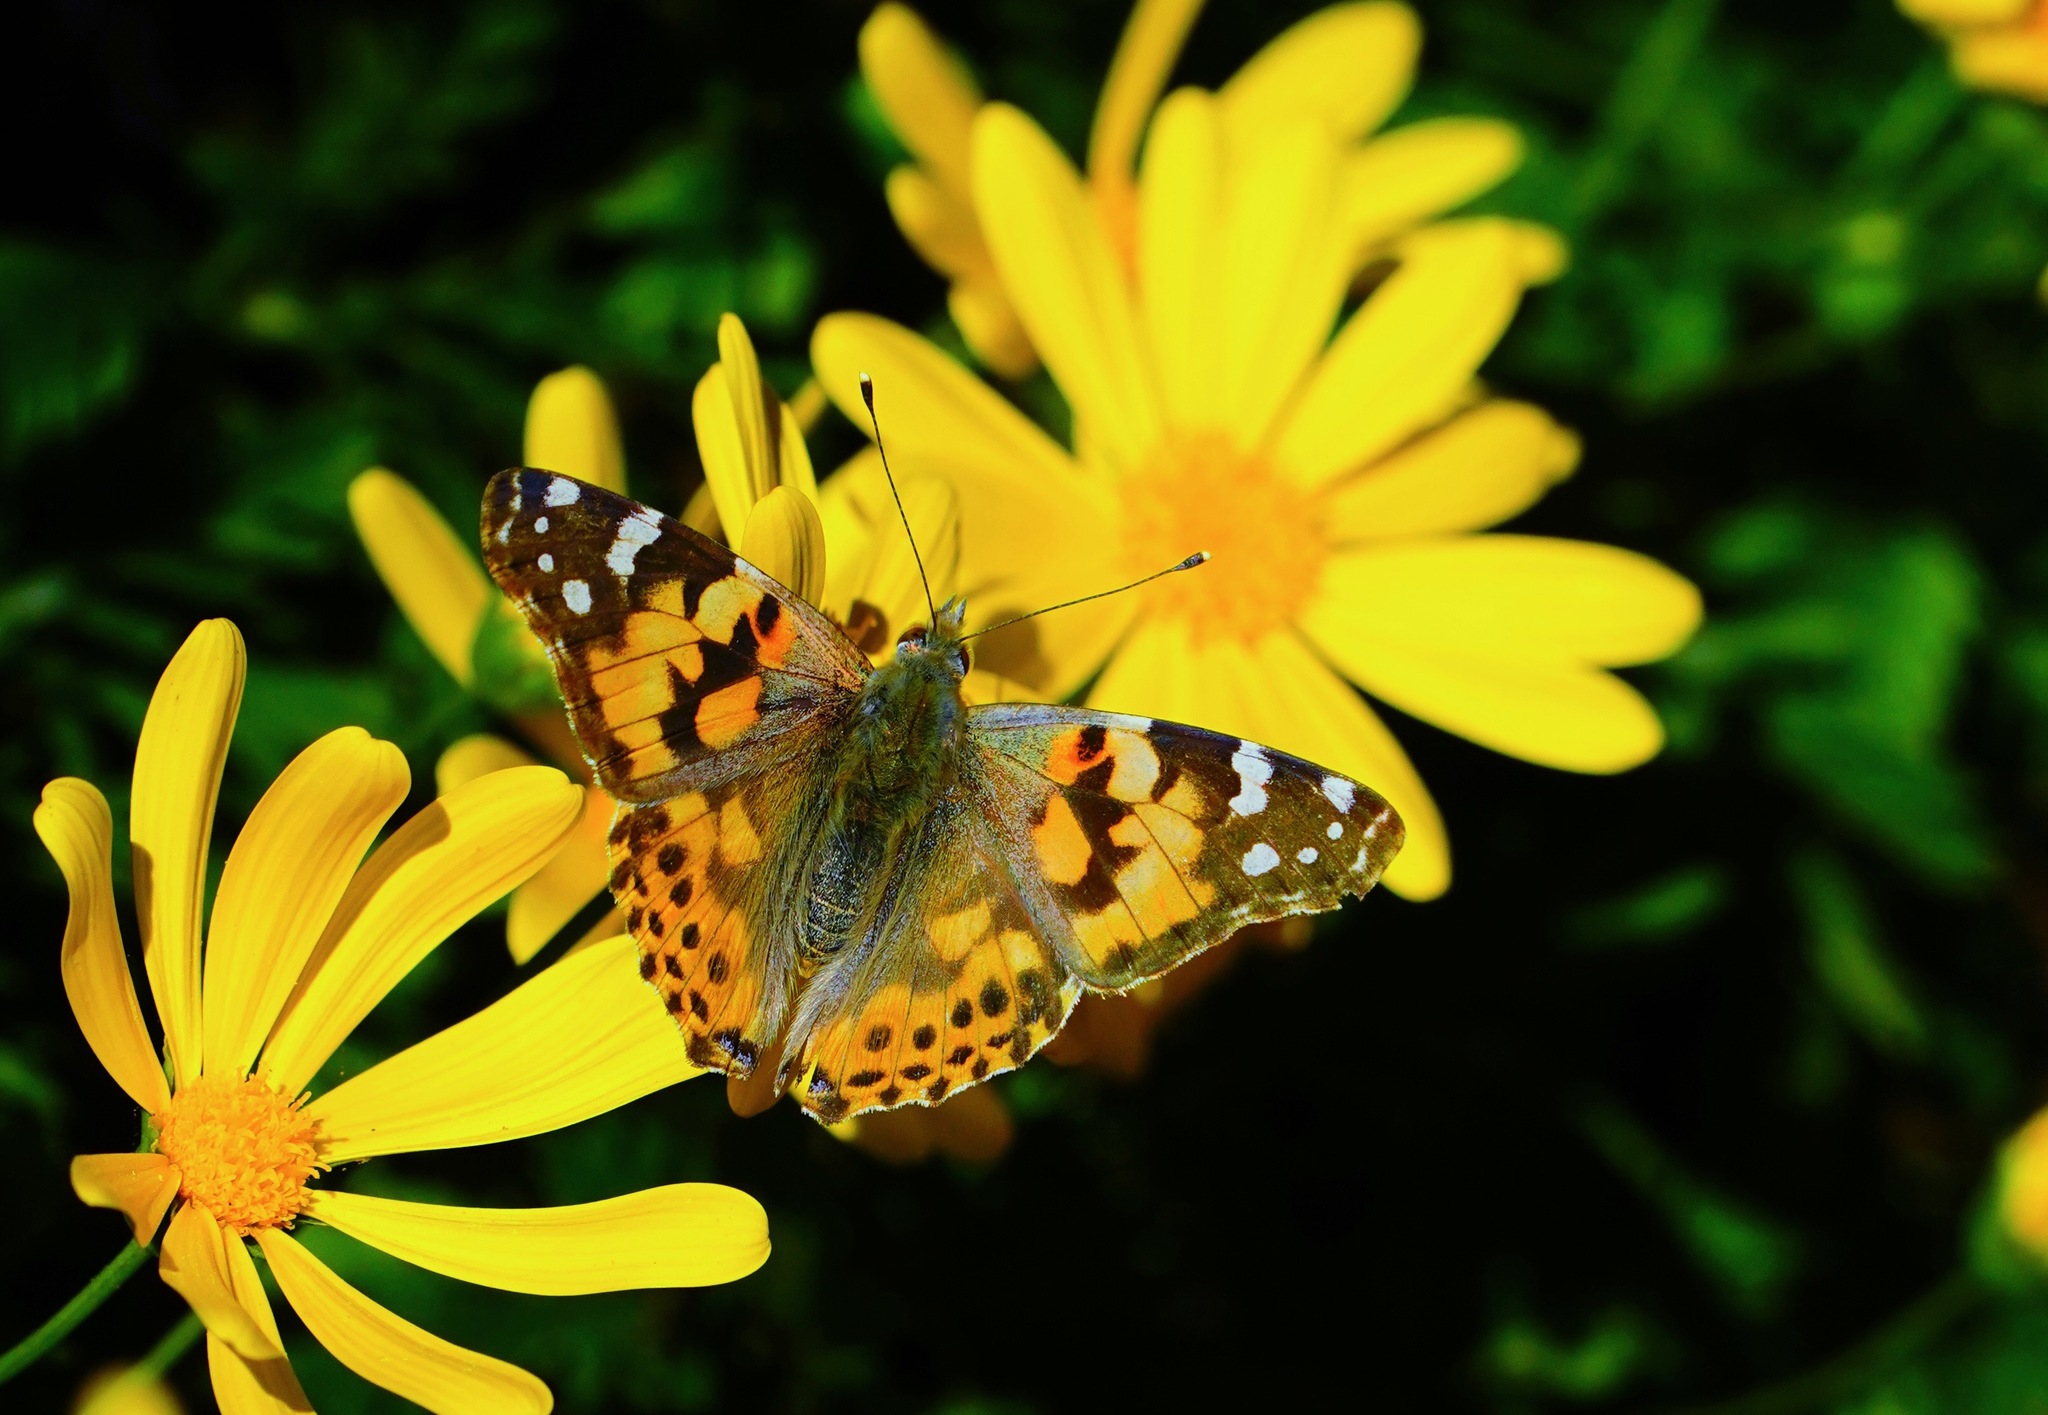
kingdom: Animalia
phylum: Arthropoda
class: Insecta
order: Lepidoptera
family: Nymphalidae
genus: Vanessa
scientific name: Vanessa cardui
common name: Painted lady
